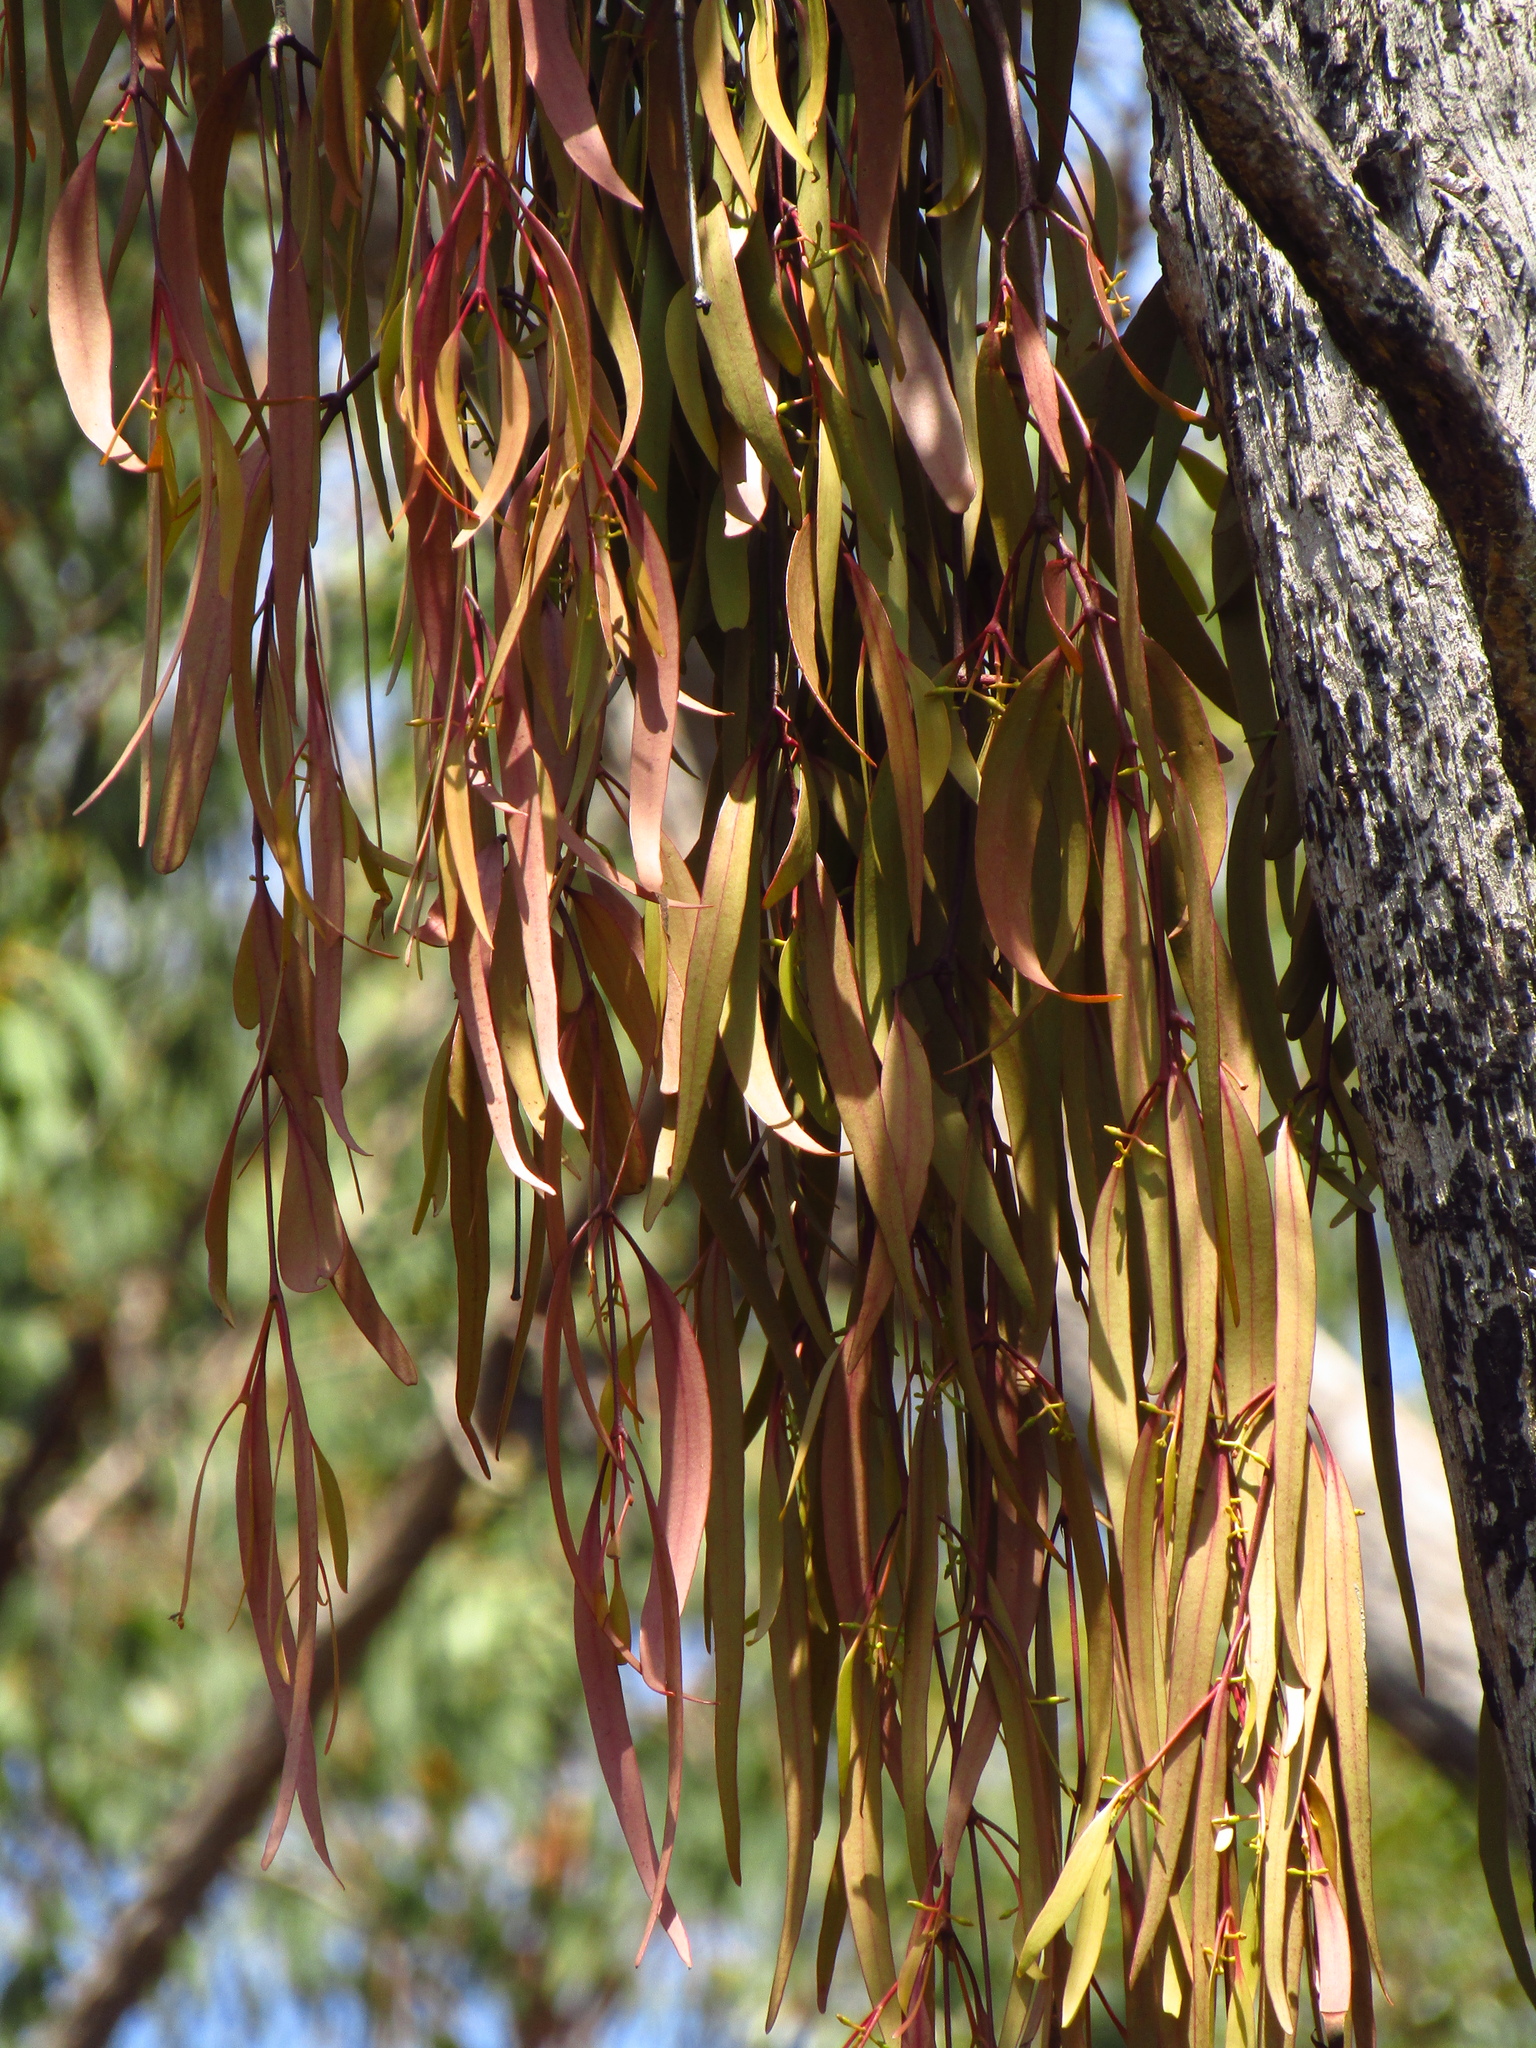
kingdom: Plantae
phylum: Tracheophyta
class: Magnoliopsida
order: Santalales
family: Loranthaceae
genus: Muellerina
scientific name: Muellerina eucalyptoides
